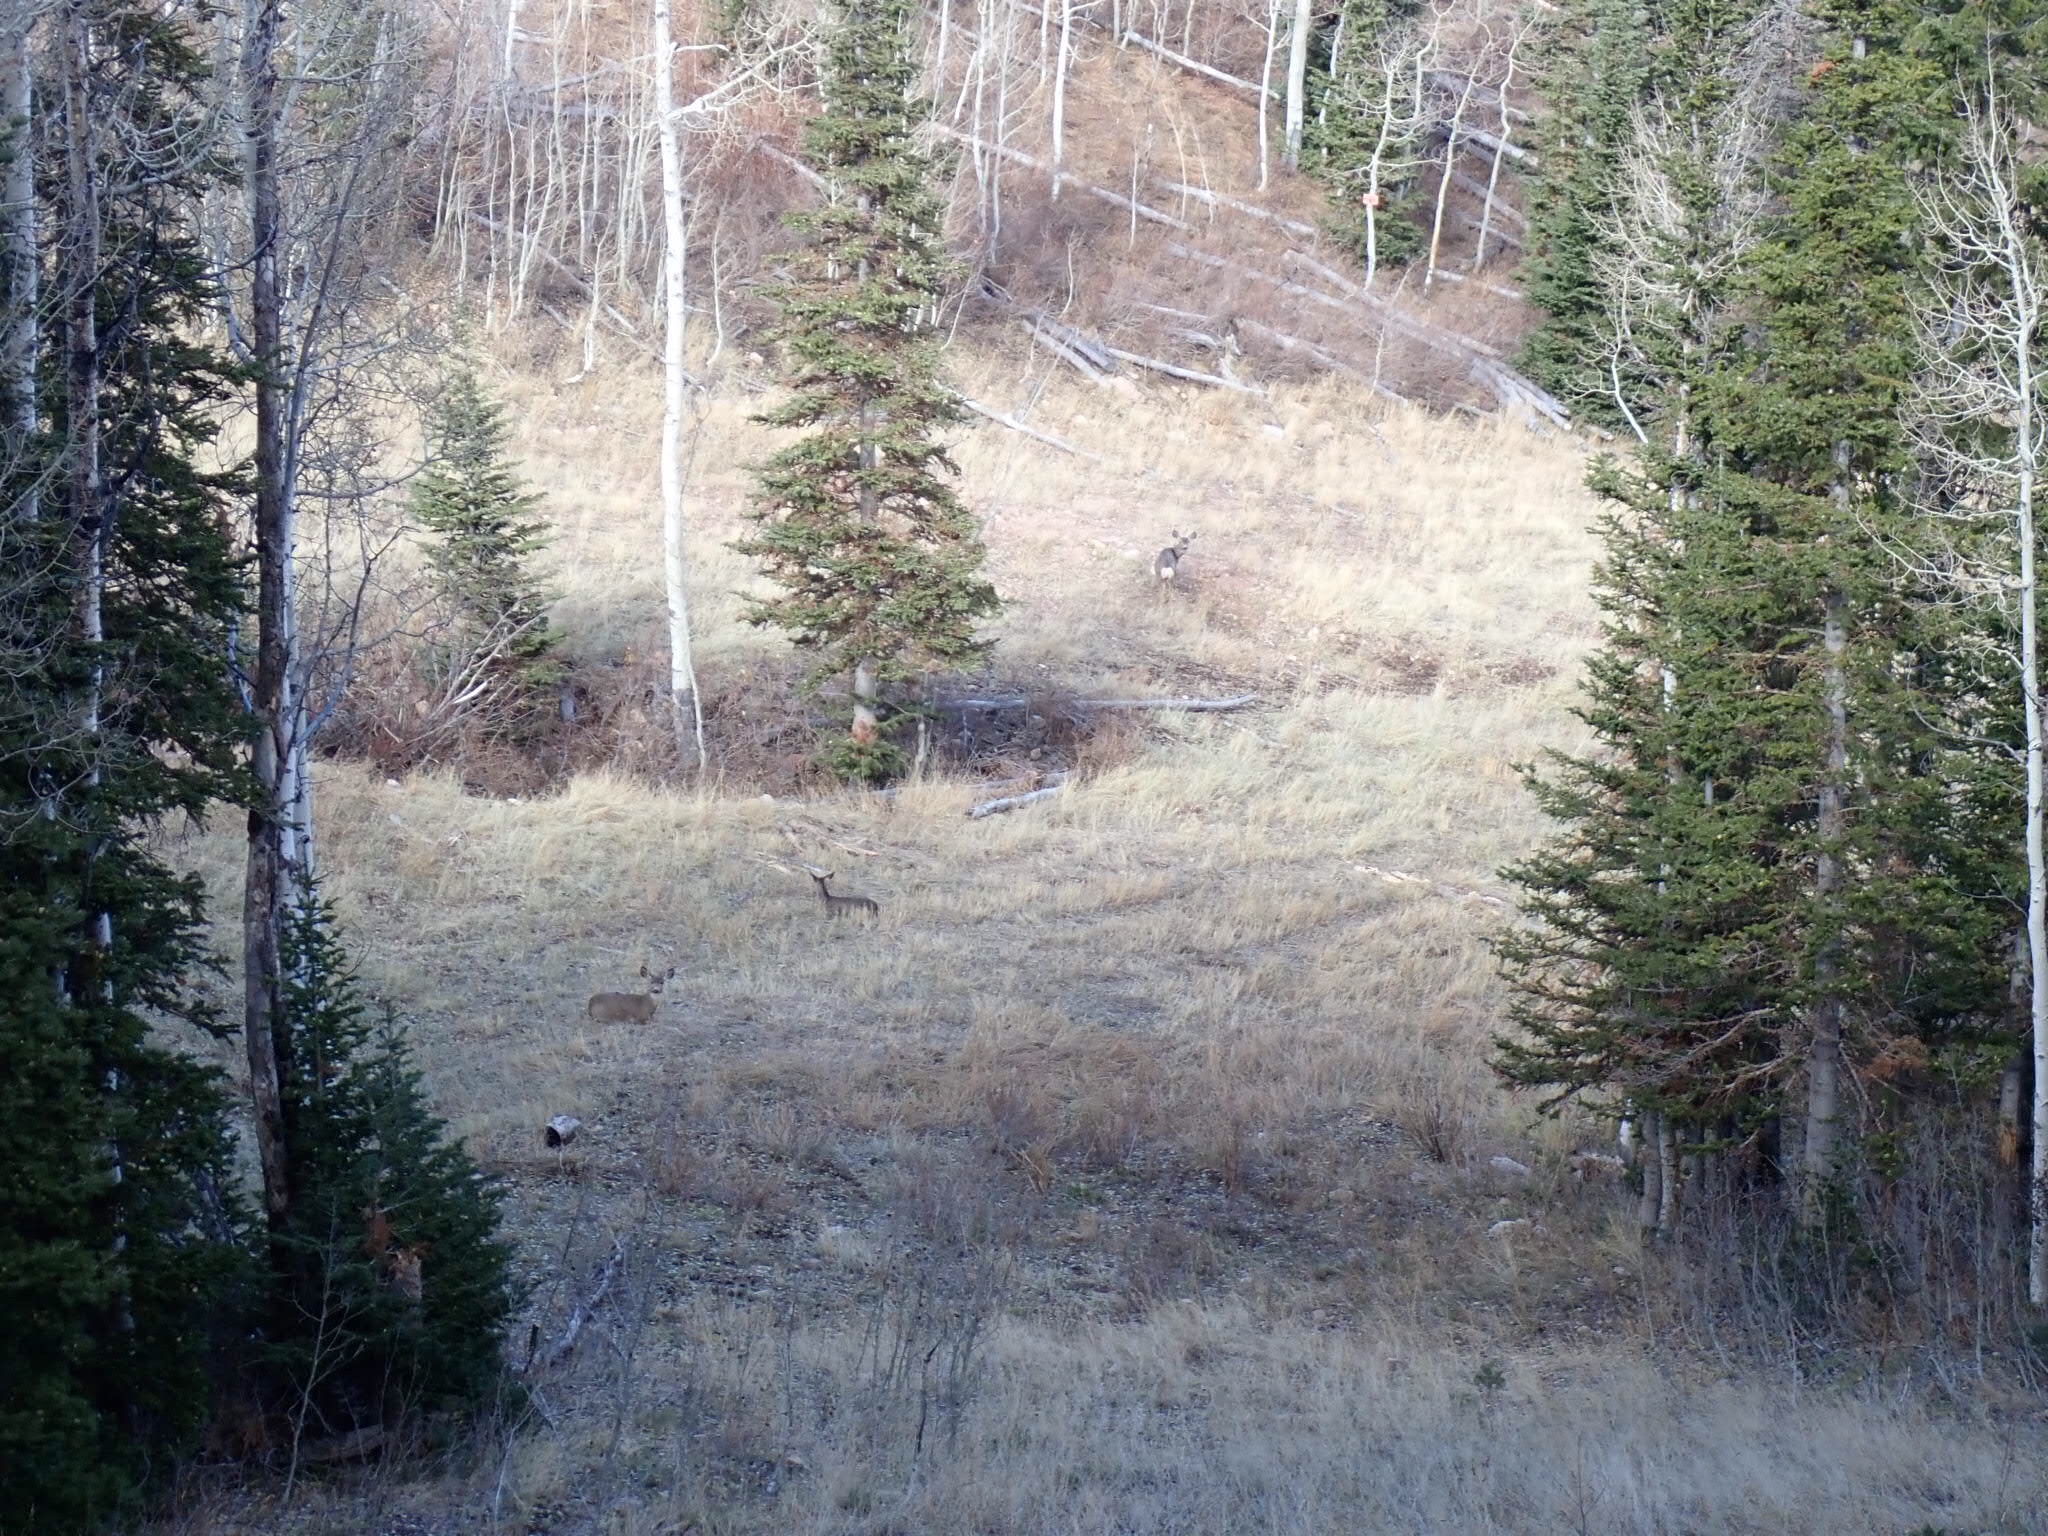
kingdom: Animalia
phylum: Chordata
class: Mammalia
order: Artiodactyla
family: Cervidae
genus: Odocoileus
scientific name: Odocoileus hemionus
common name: Mule deer
